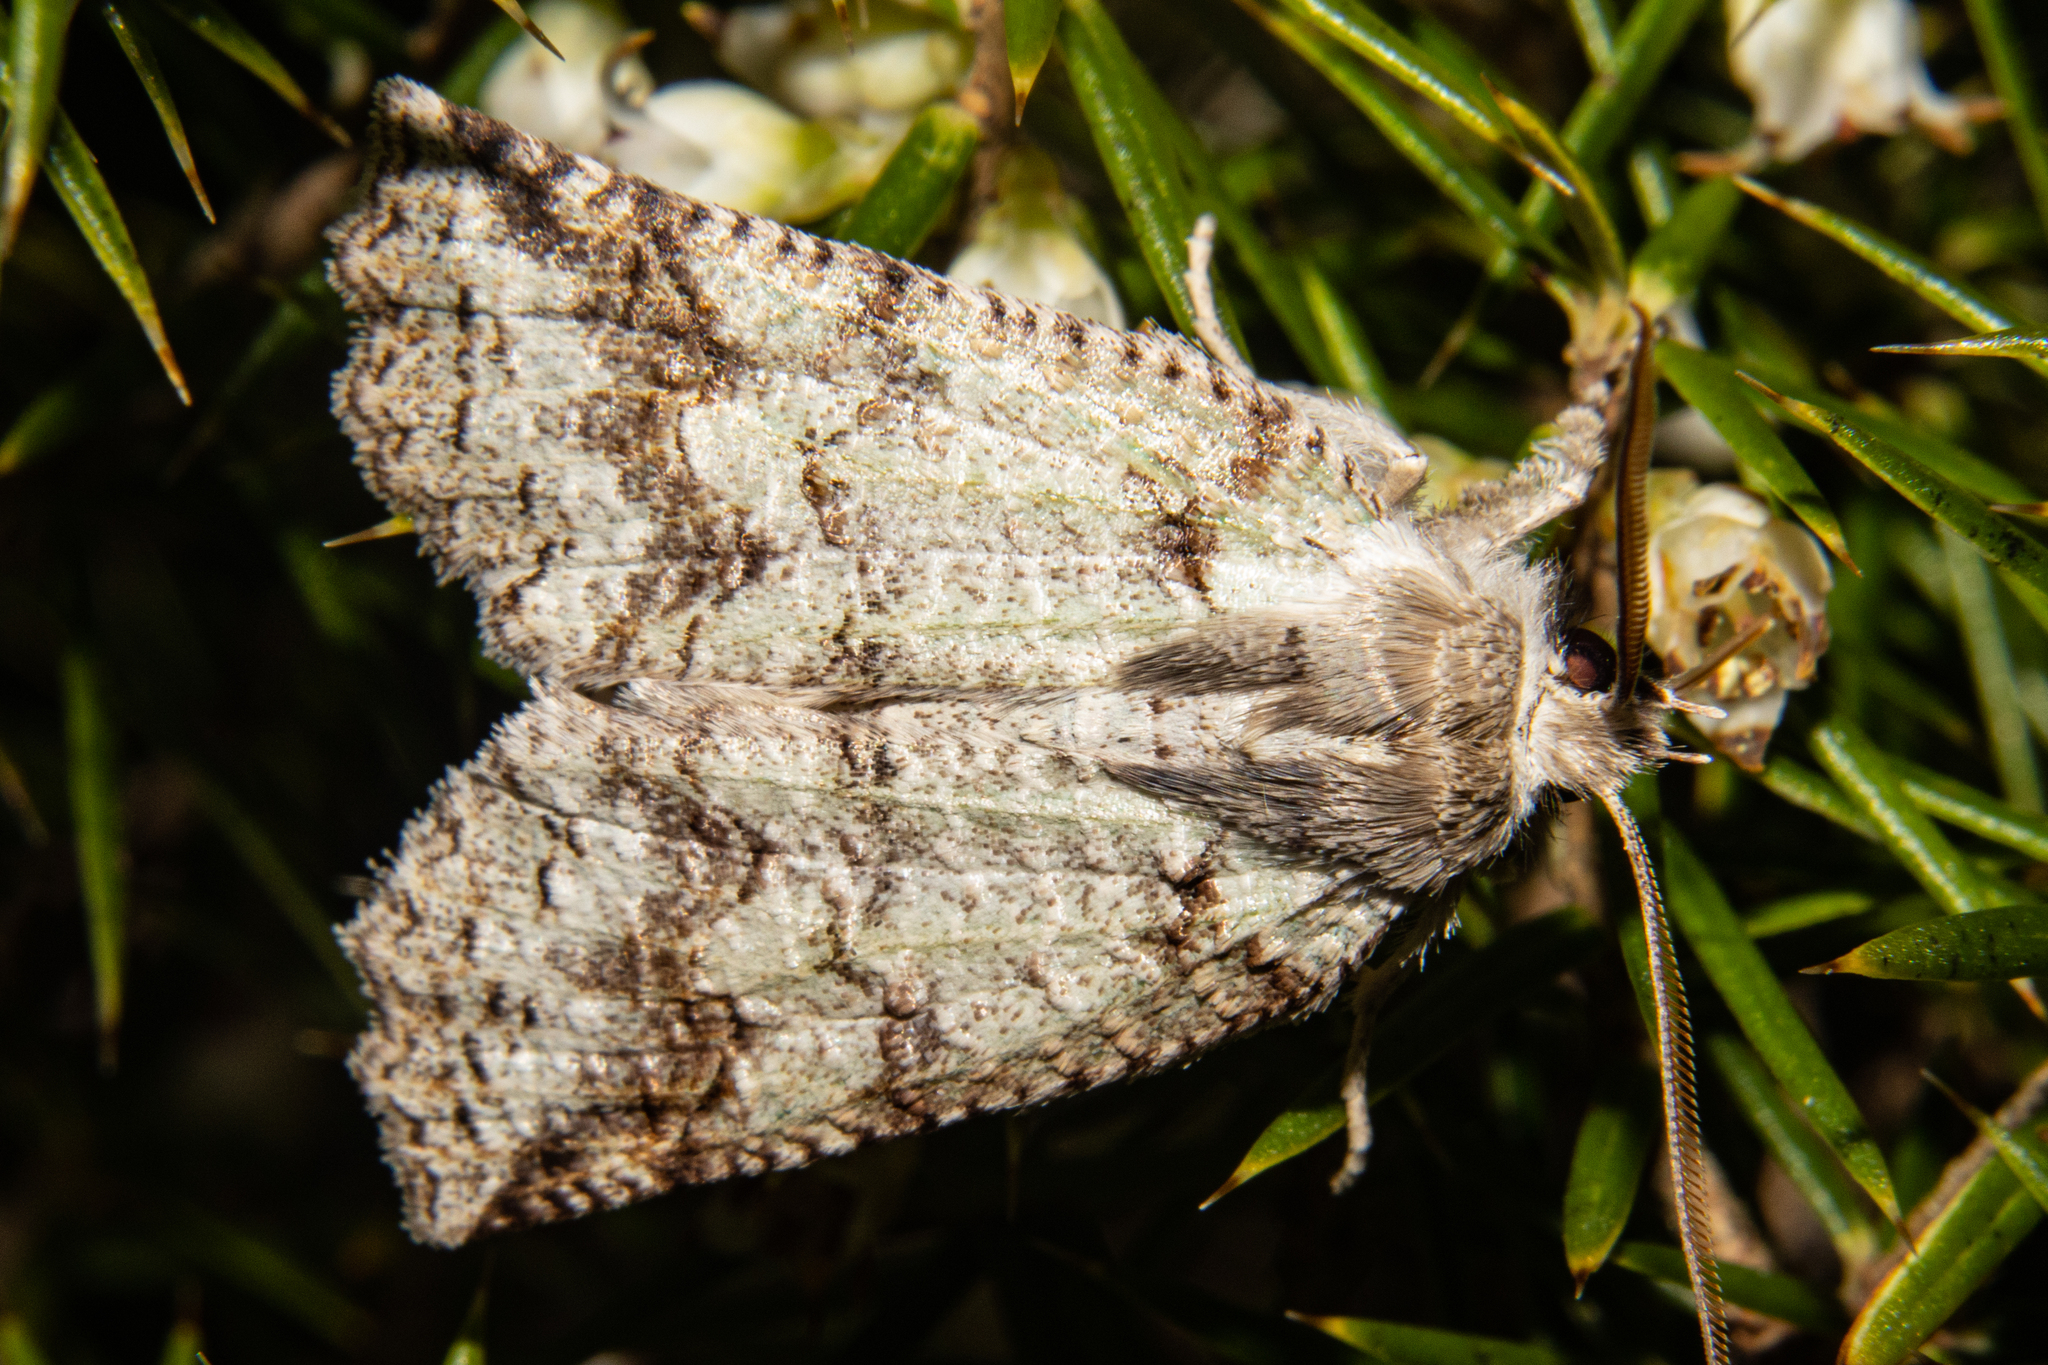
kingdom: Animalia
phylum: Arthropoda
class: Insecta
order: Lepidoptera
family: Geometridae
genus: Declana
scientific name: Declana floccosa
